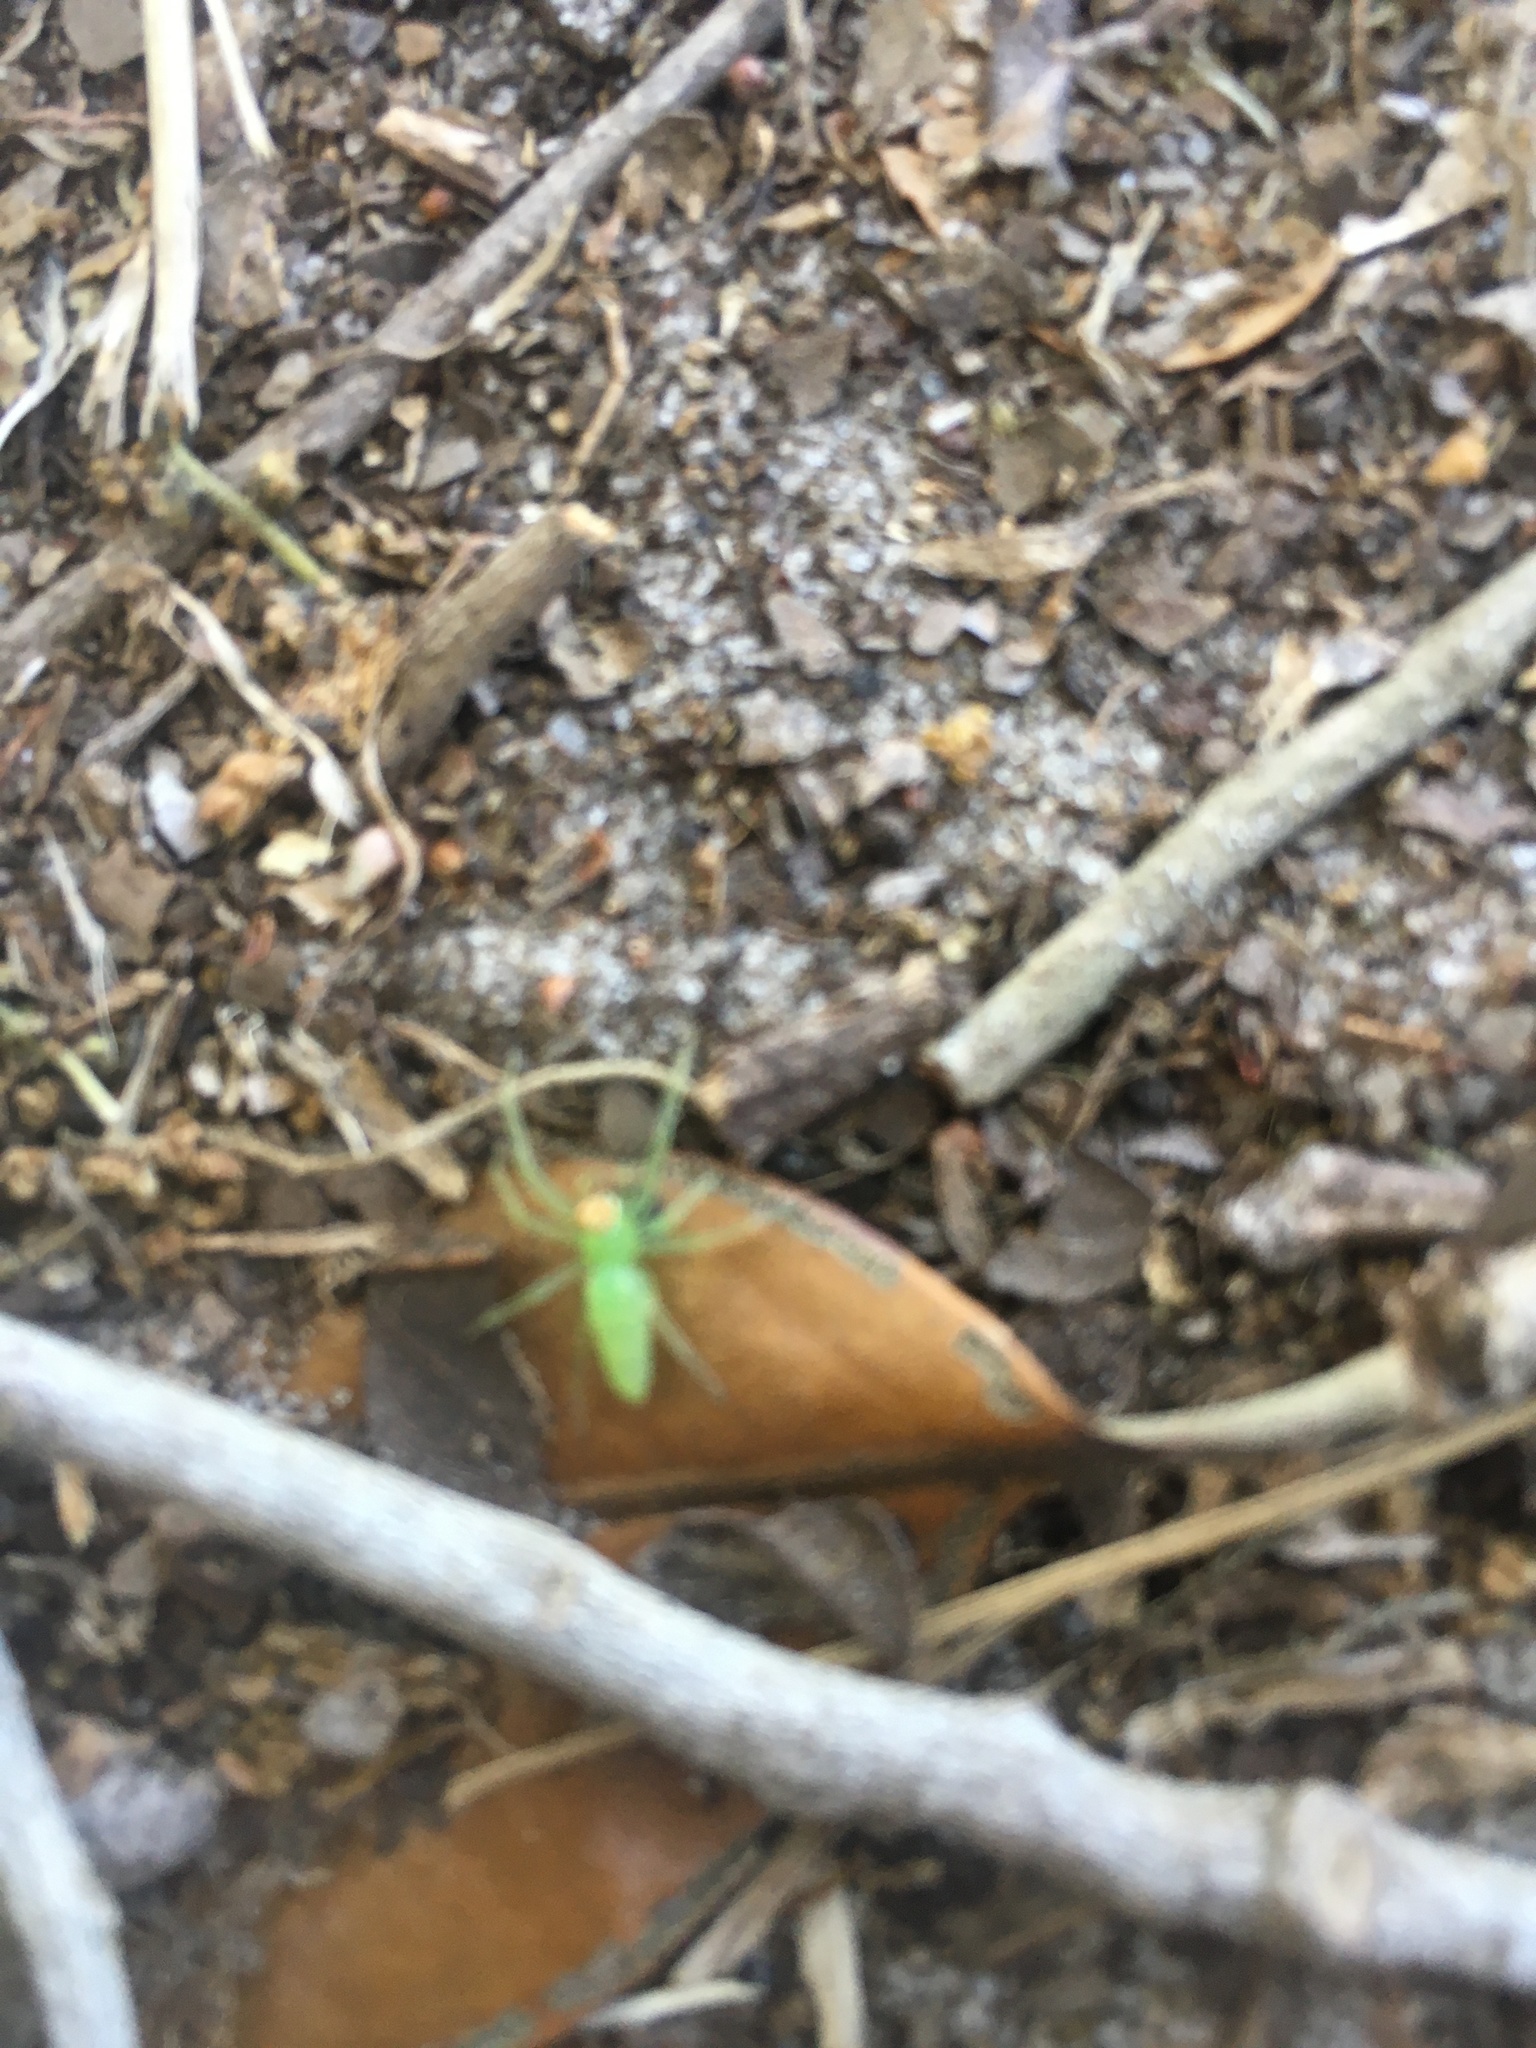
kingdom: Animalia
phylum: Arthropoda
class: Arachnida
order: Araneae
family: Salticidae
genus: Lyssomanes
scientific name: Lyssomanes viridis
